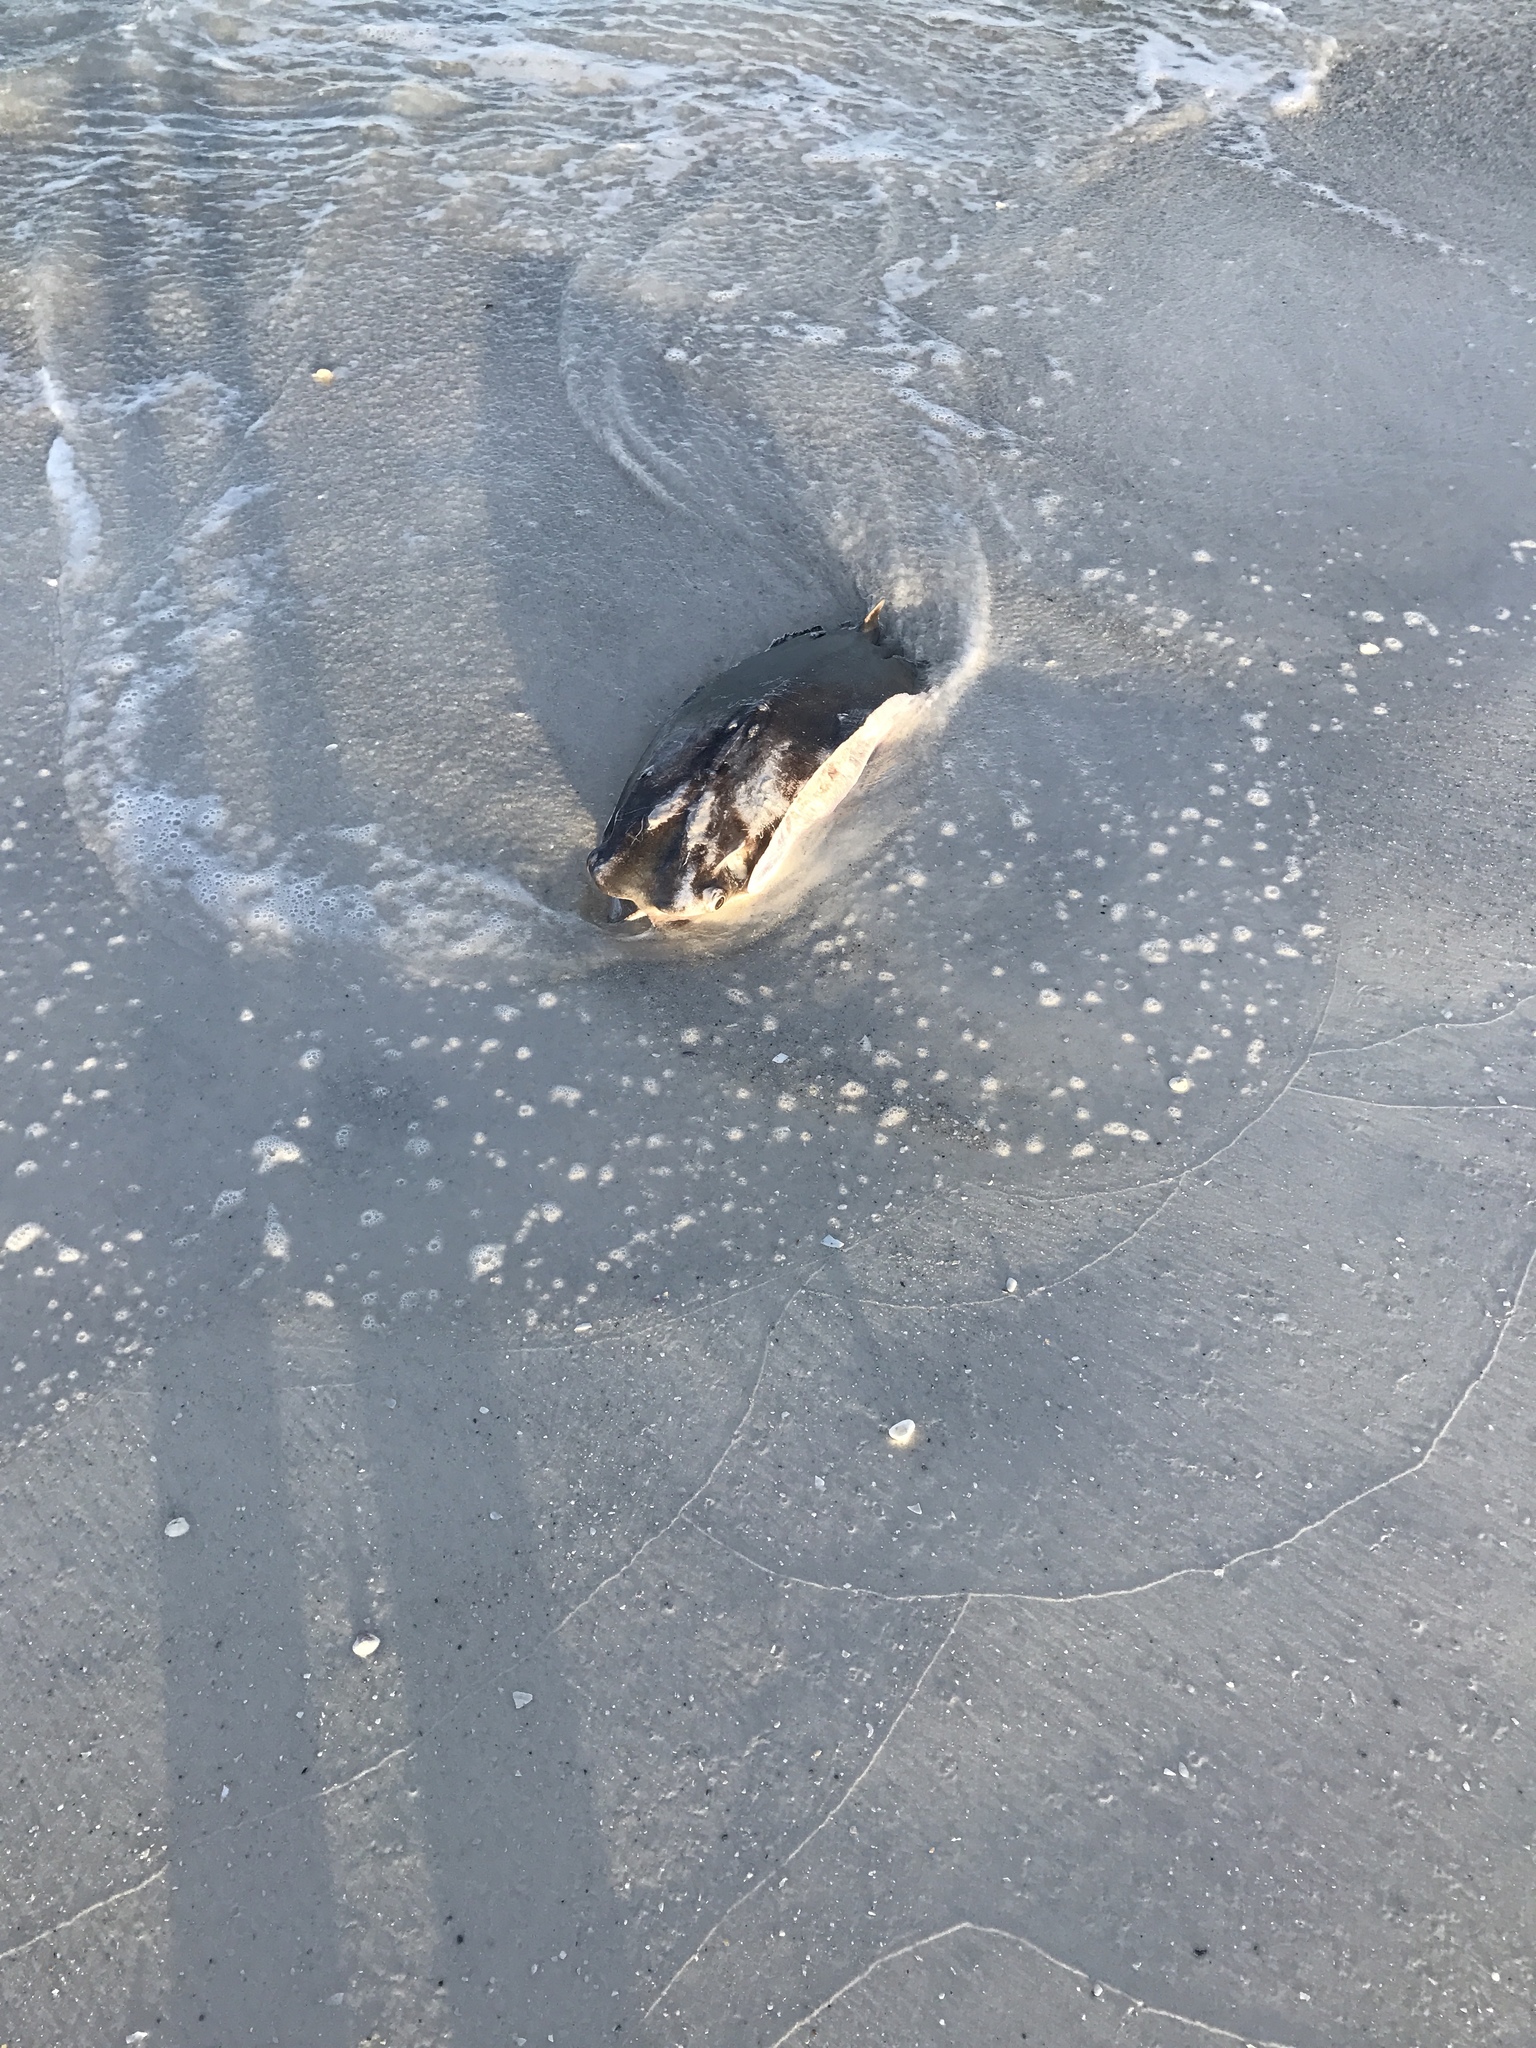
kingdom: Animalia
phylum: Chordata
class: Elasmobranchii
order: Myliobatiformes
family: Myliobatidae
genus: Rhinoptera
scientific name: Rhinoptera bonasus
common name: Cownose ray
